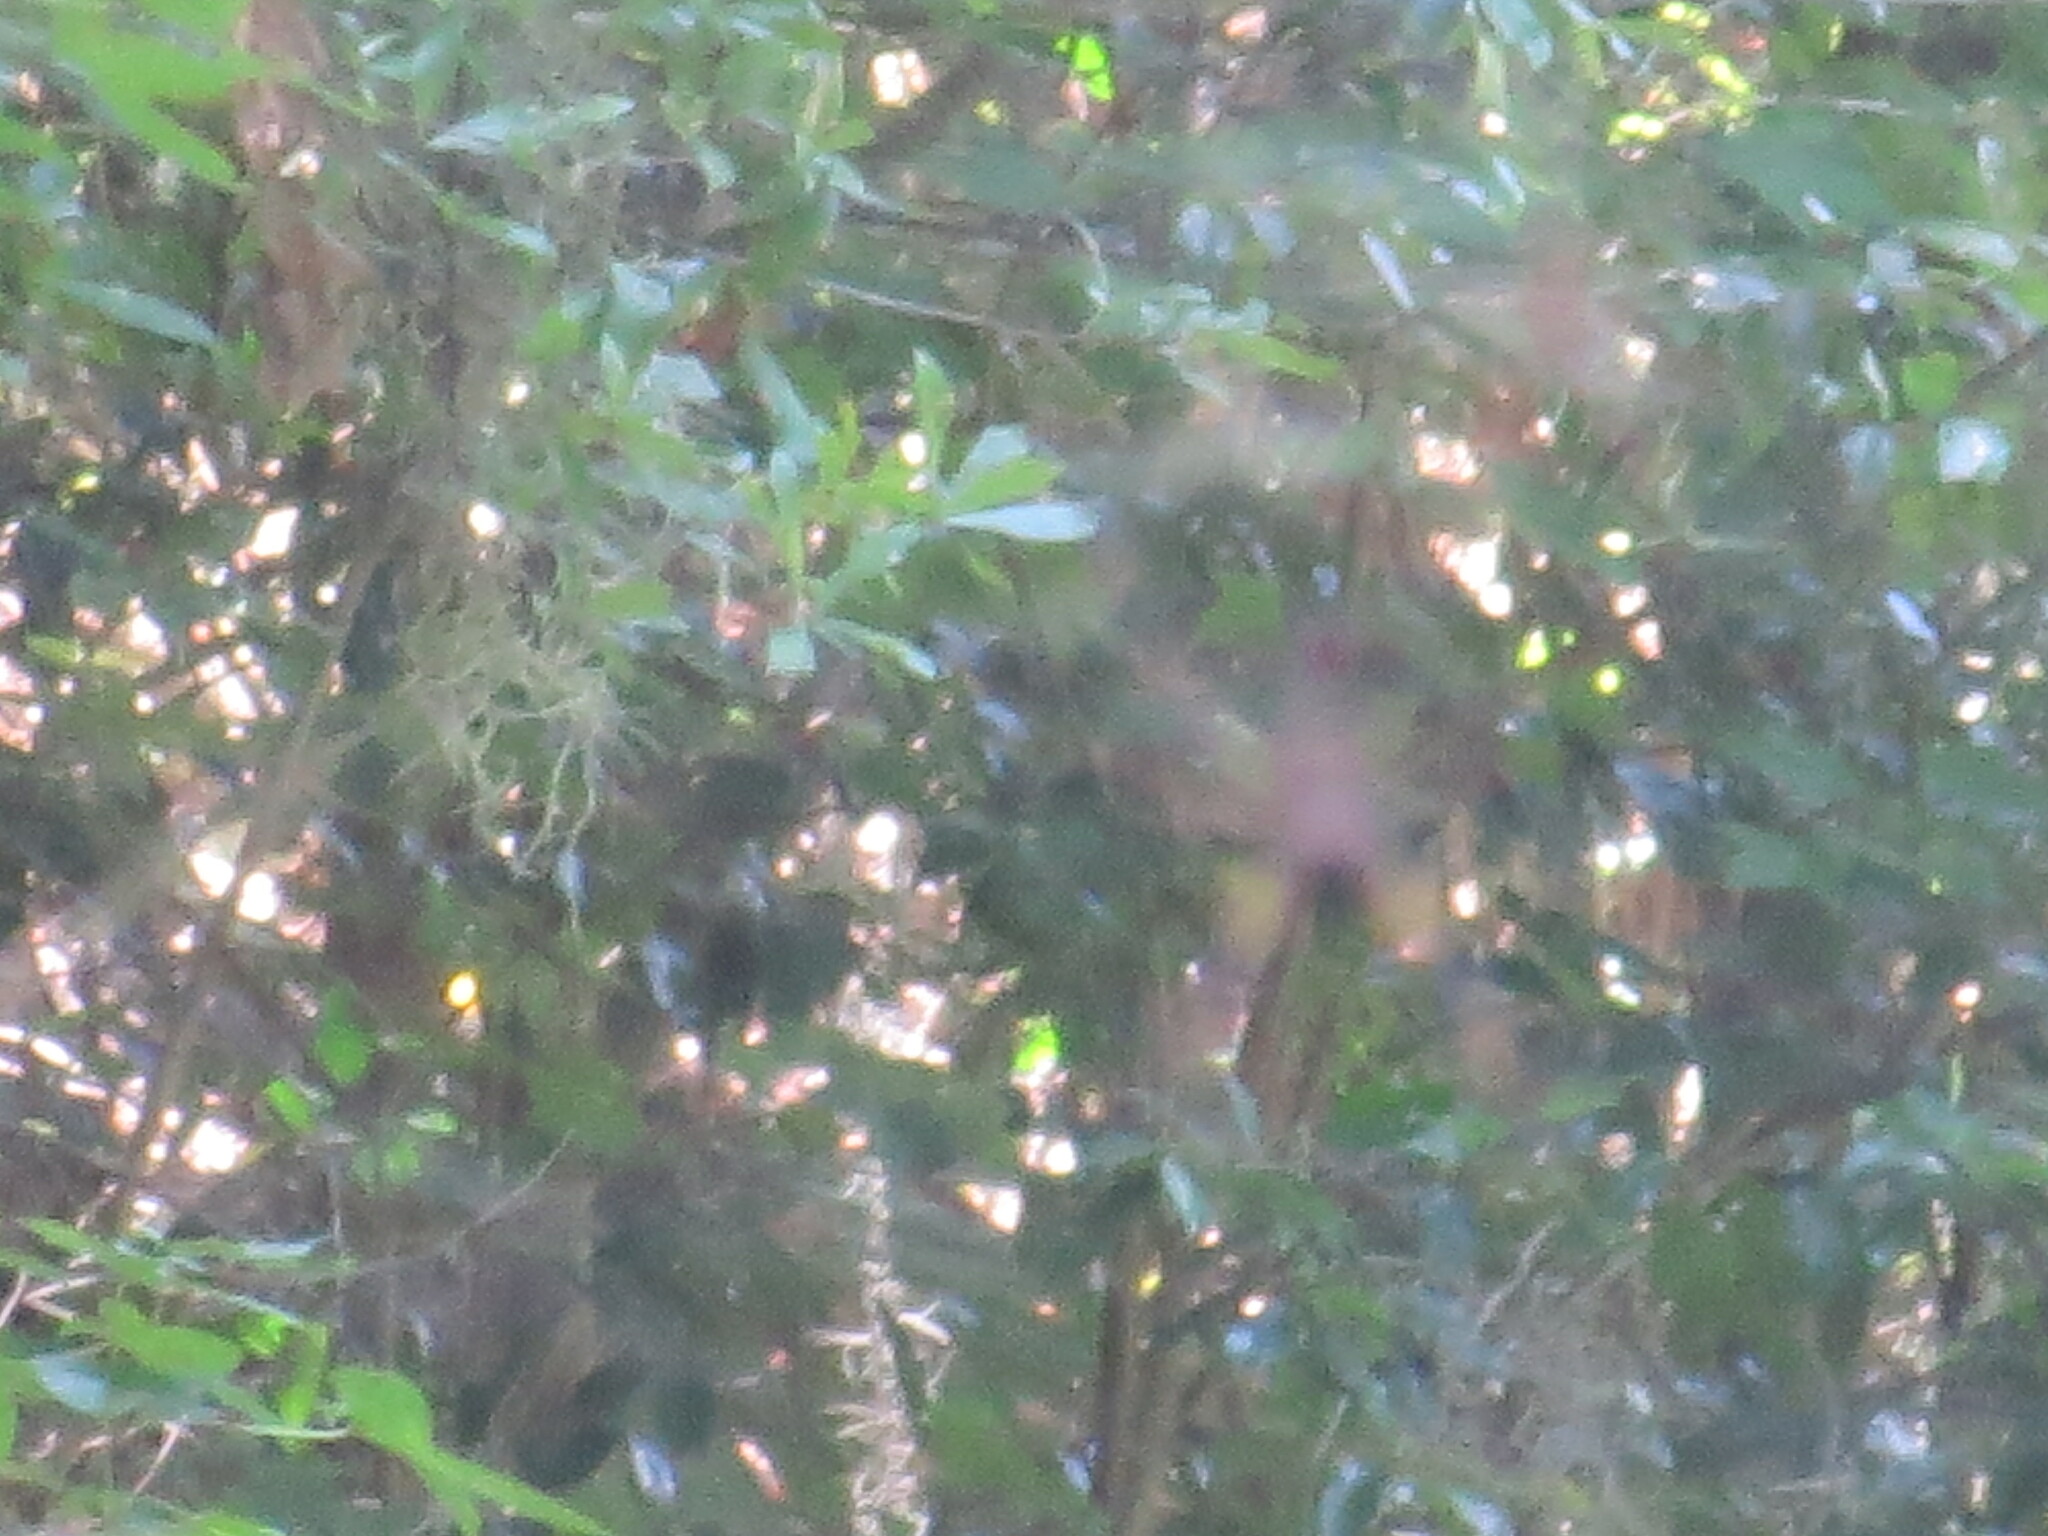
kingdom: Animalia
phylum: Arthropoda
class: Arachnida
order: Araneae
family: Araneidae
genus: Trichonephila
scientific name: Trichonephila clavipes
